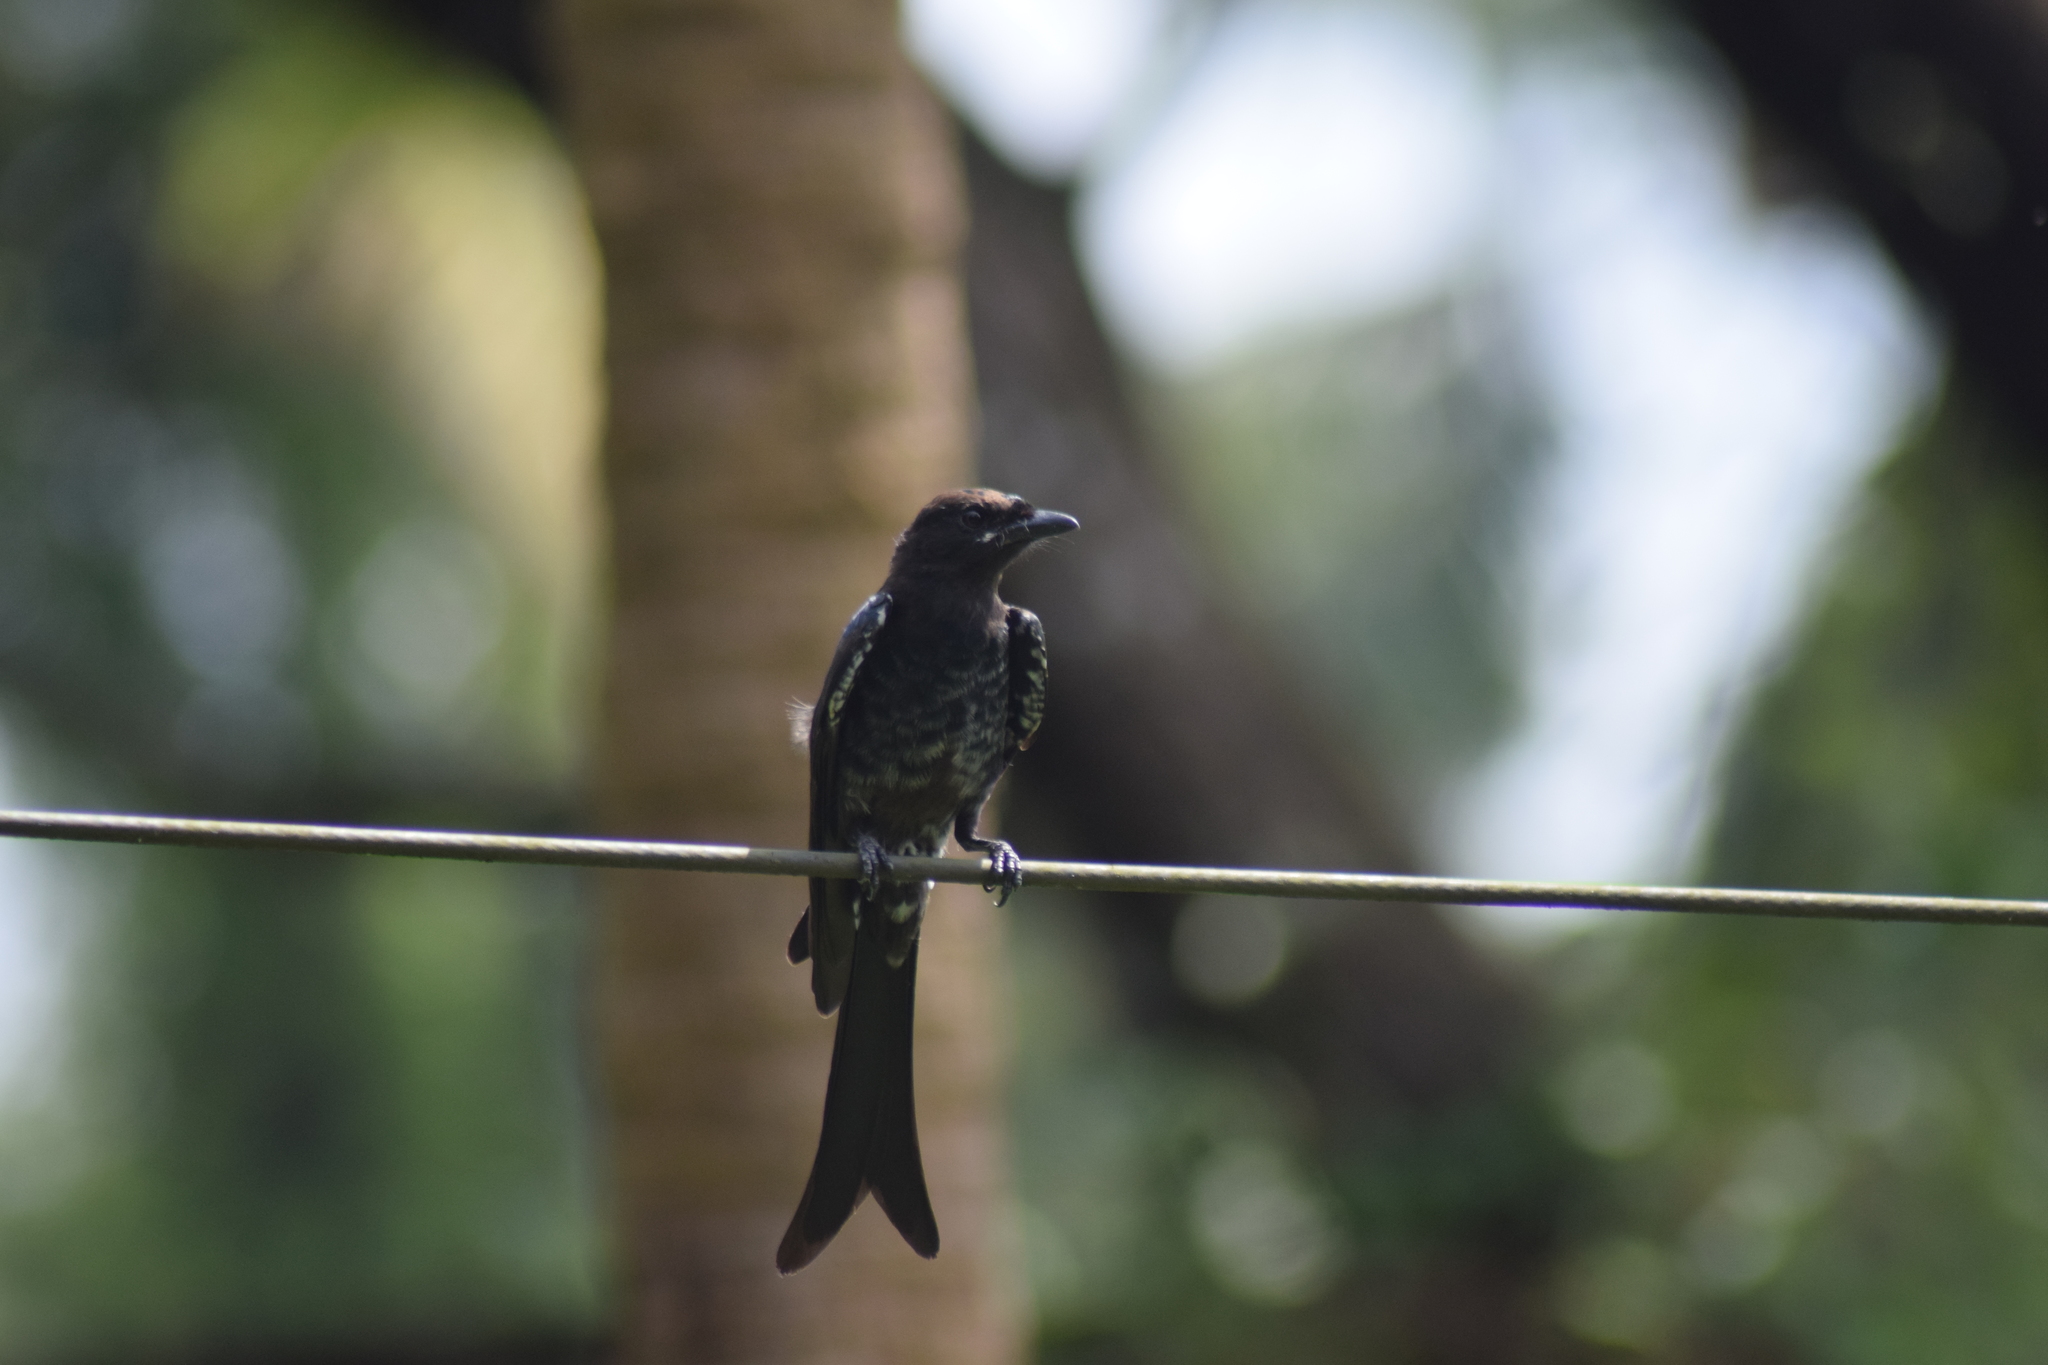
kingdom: Animalia
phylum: Chordata
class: Aves
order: Passeriformes
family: Dicruridae
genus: Dicrurus
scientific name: Dicrurus macrocercus
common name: Black drongo
